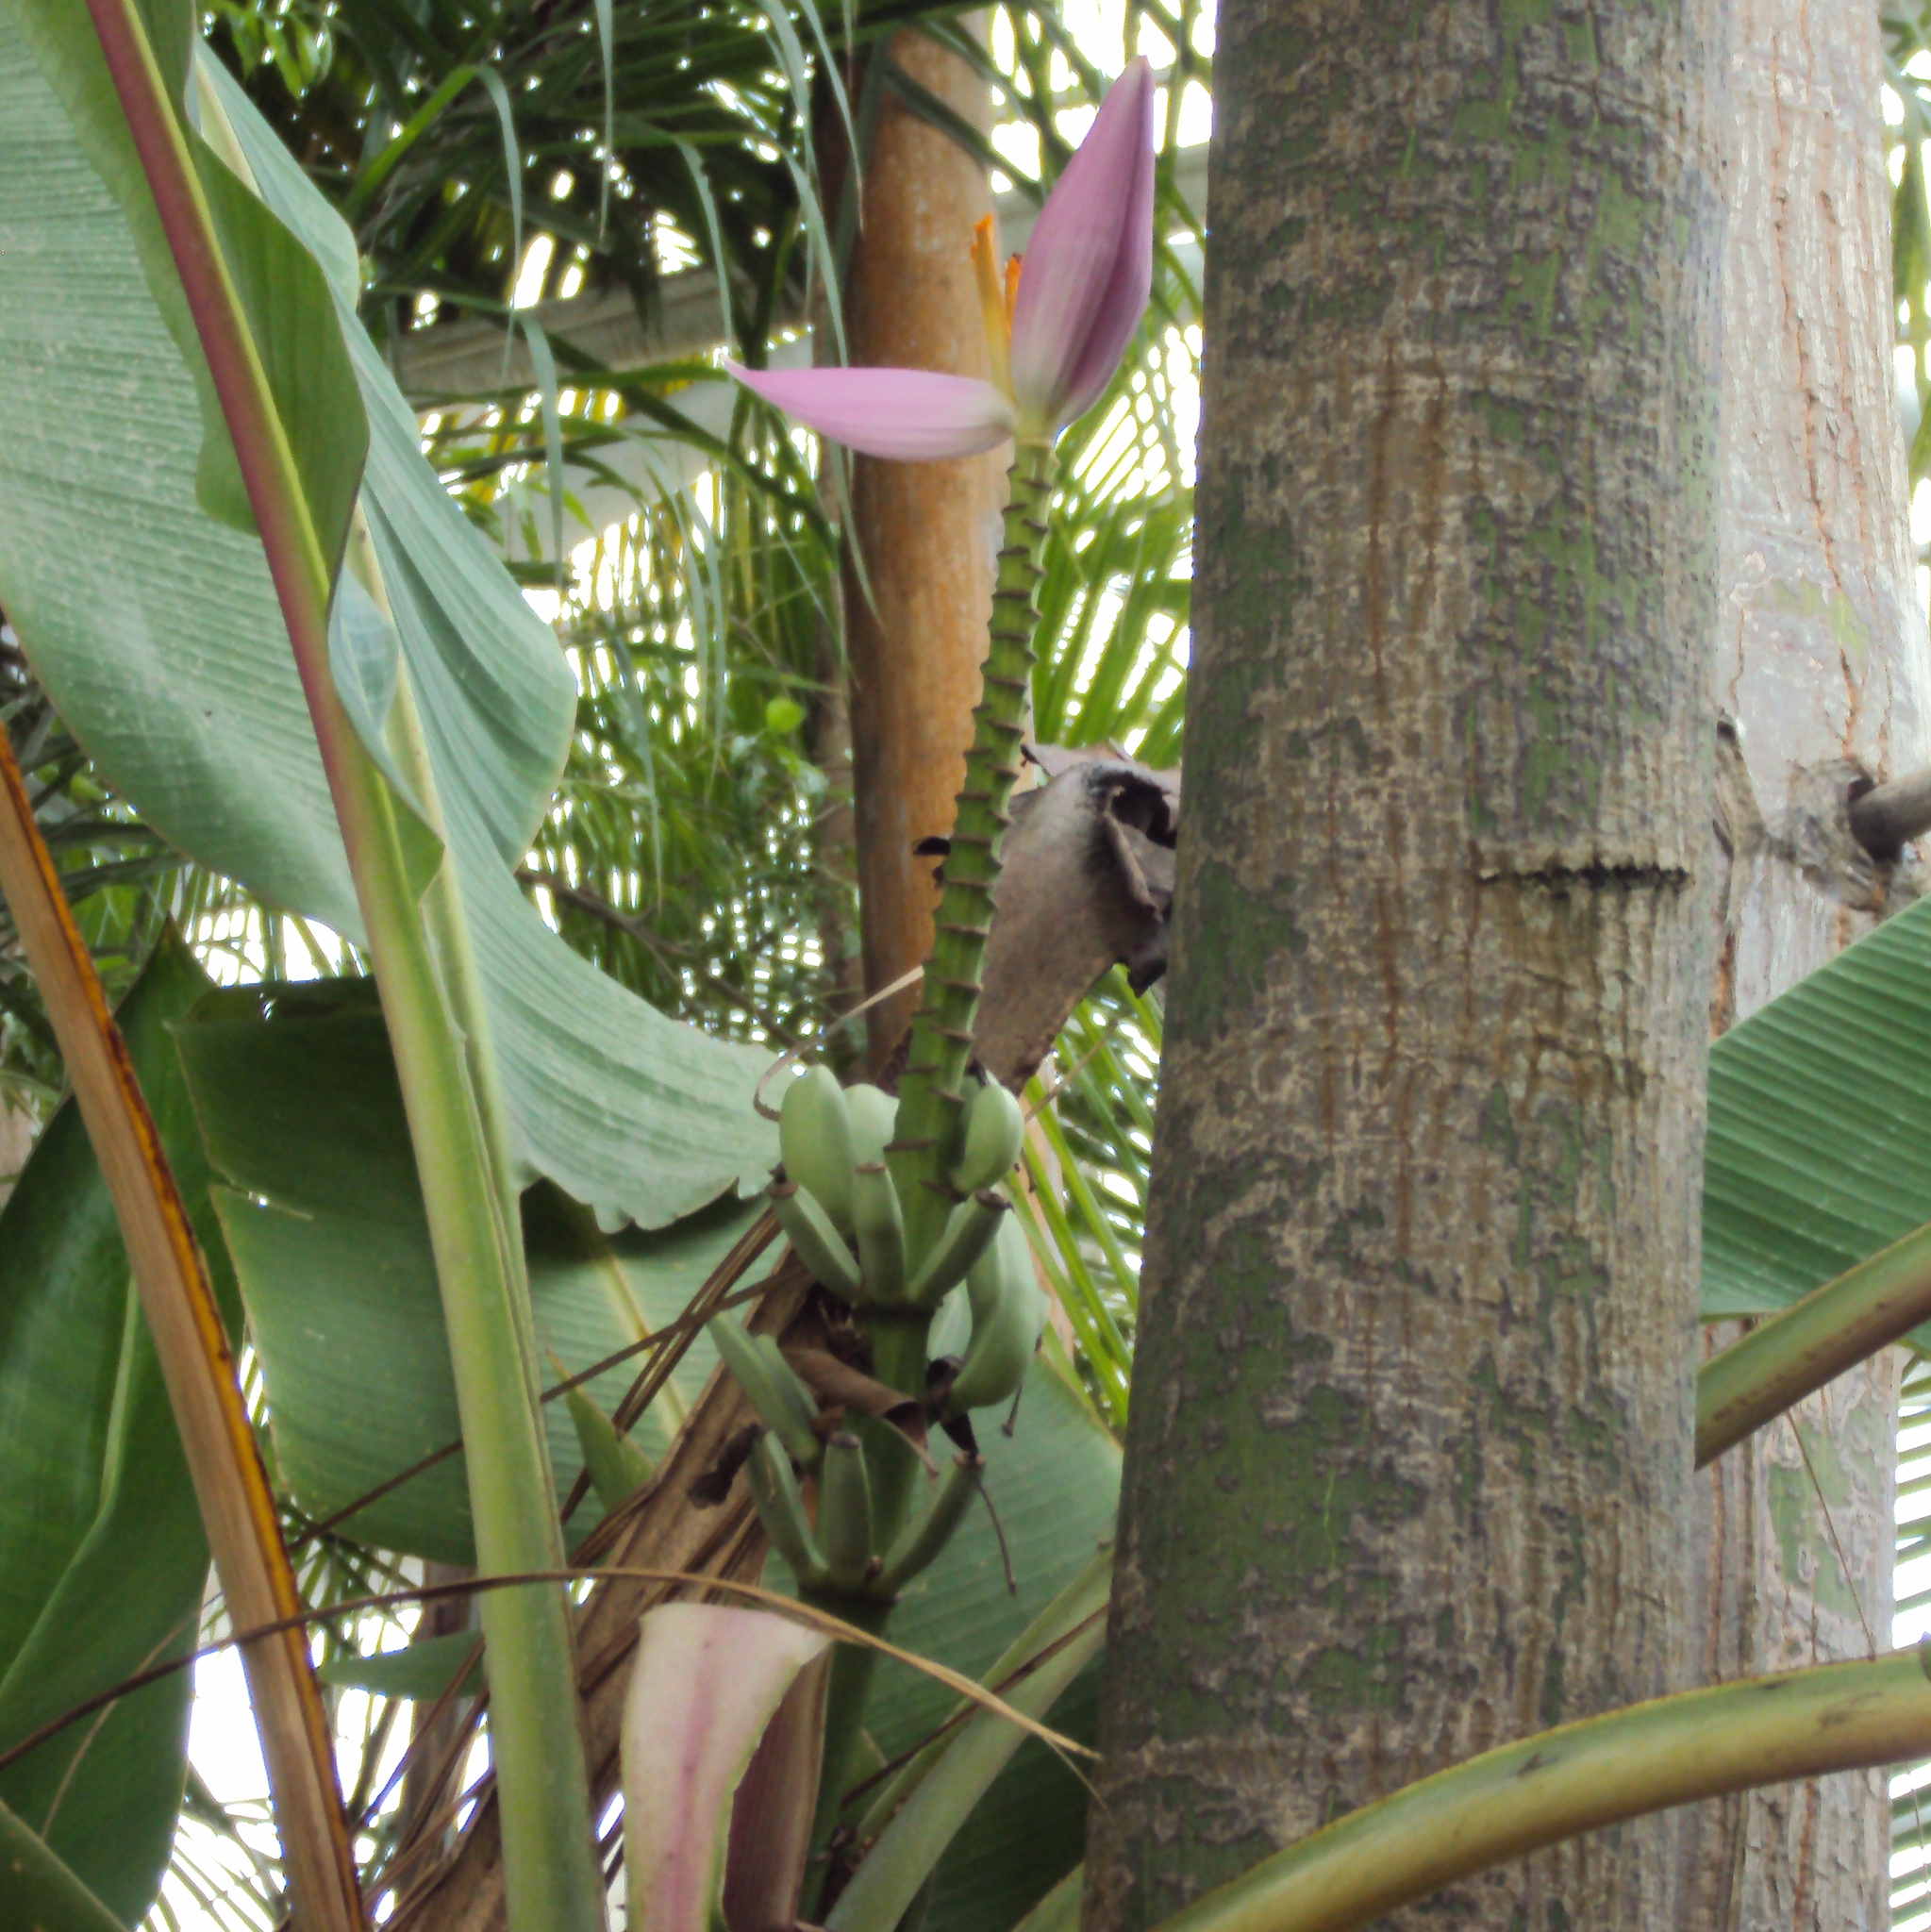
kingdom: Plantae
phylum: Tracheophyta
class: Liliopsida
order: Zingiberales
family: Musaceae
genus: Musa
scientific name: Musa ornata
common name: Flowering banana
